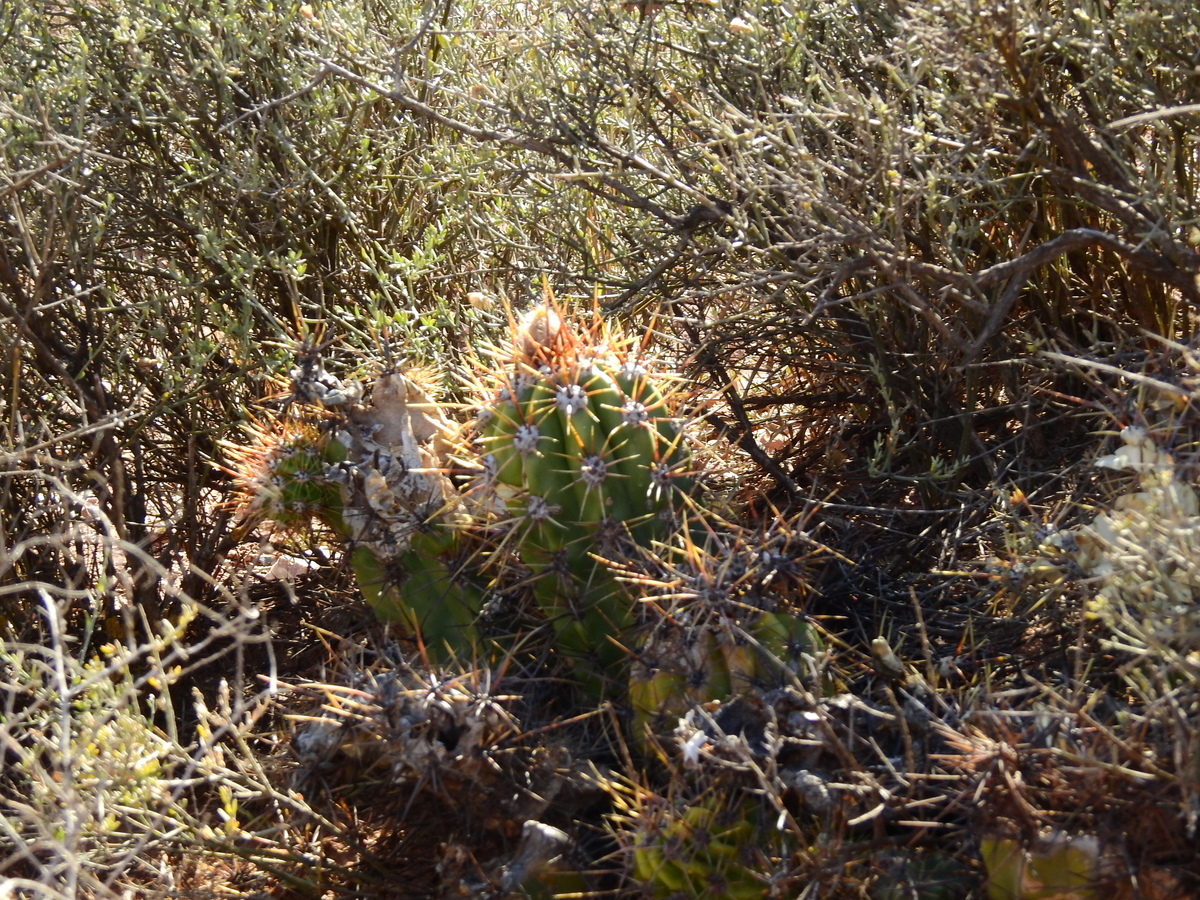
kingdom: Plantae
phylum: Tracheophyta
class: Magnoliopsida
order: Caryophyllales
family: Cactaceae
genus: Soehrensia
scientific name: Soehrensia candicans
